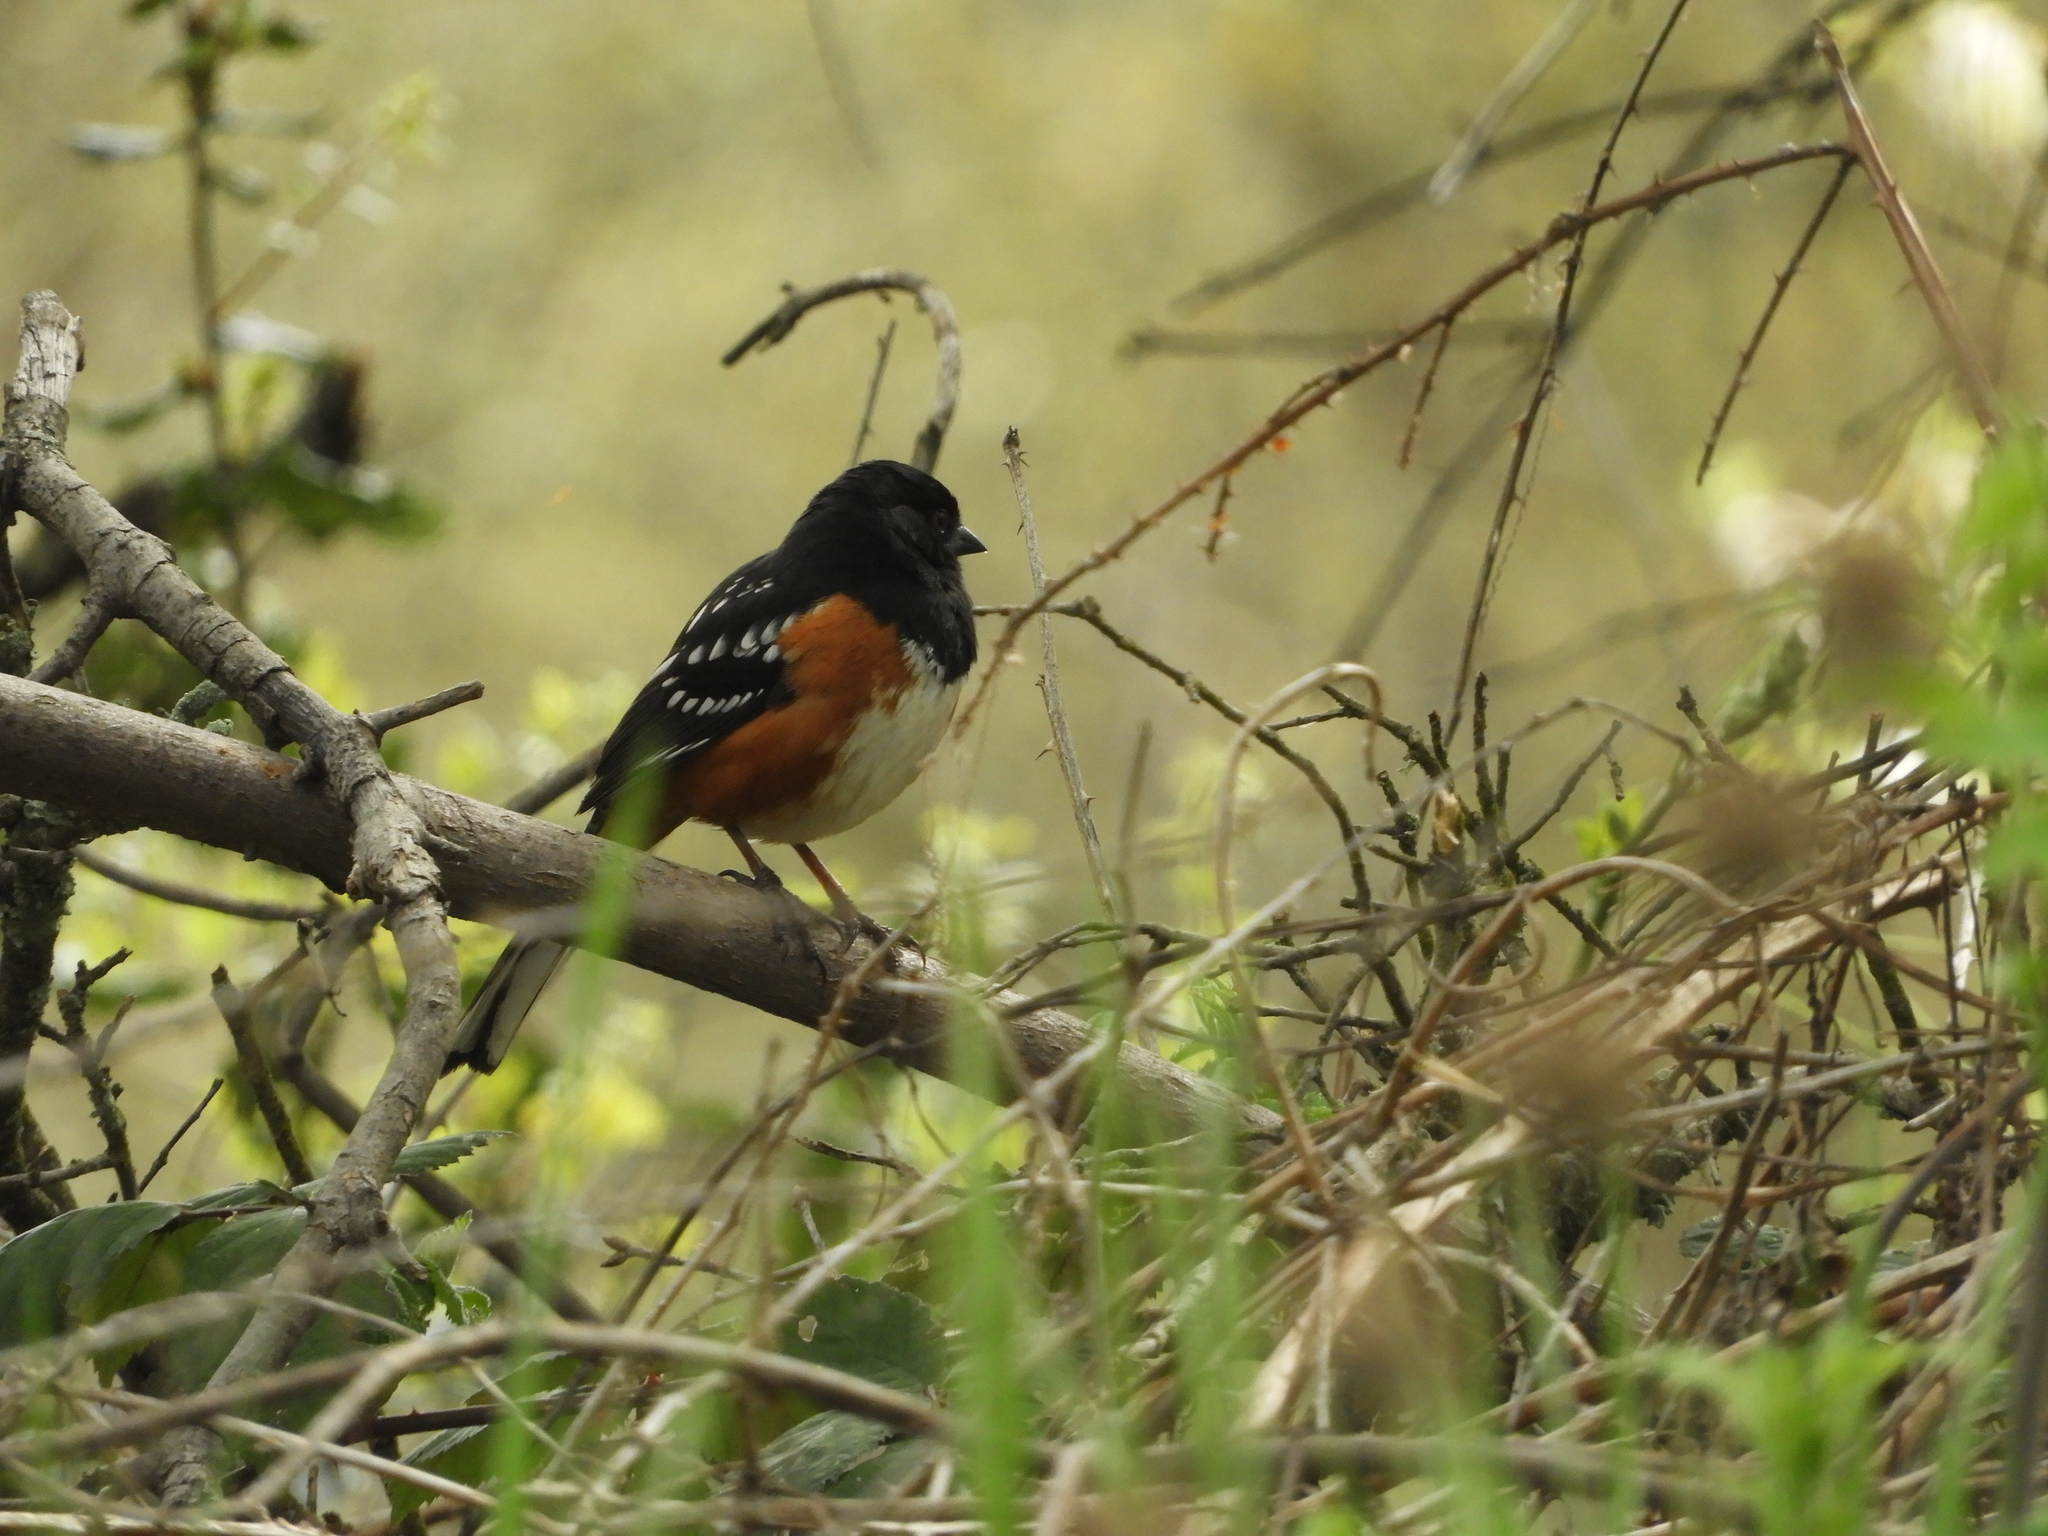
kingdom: Animalia
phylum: Chordata
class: Aves
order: Passeriformes
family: Passerellidae
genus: Pipilo
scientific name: Pipilo maculatus
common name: Spotted towhee
